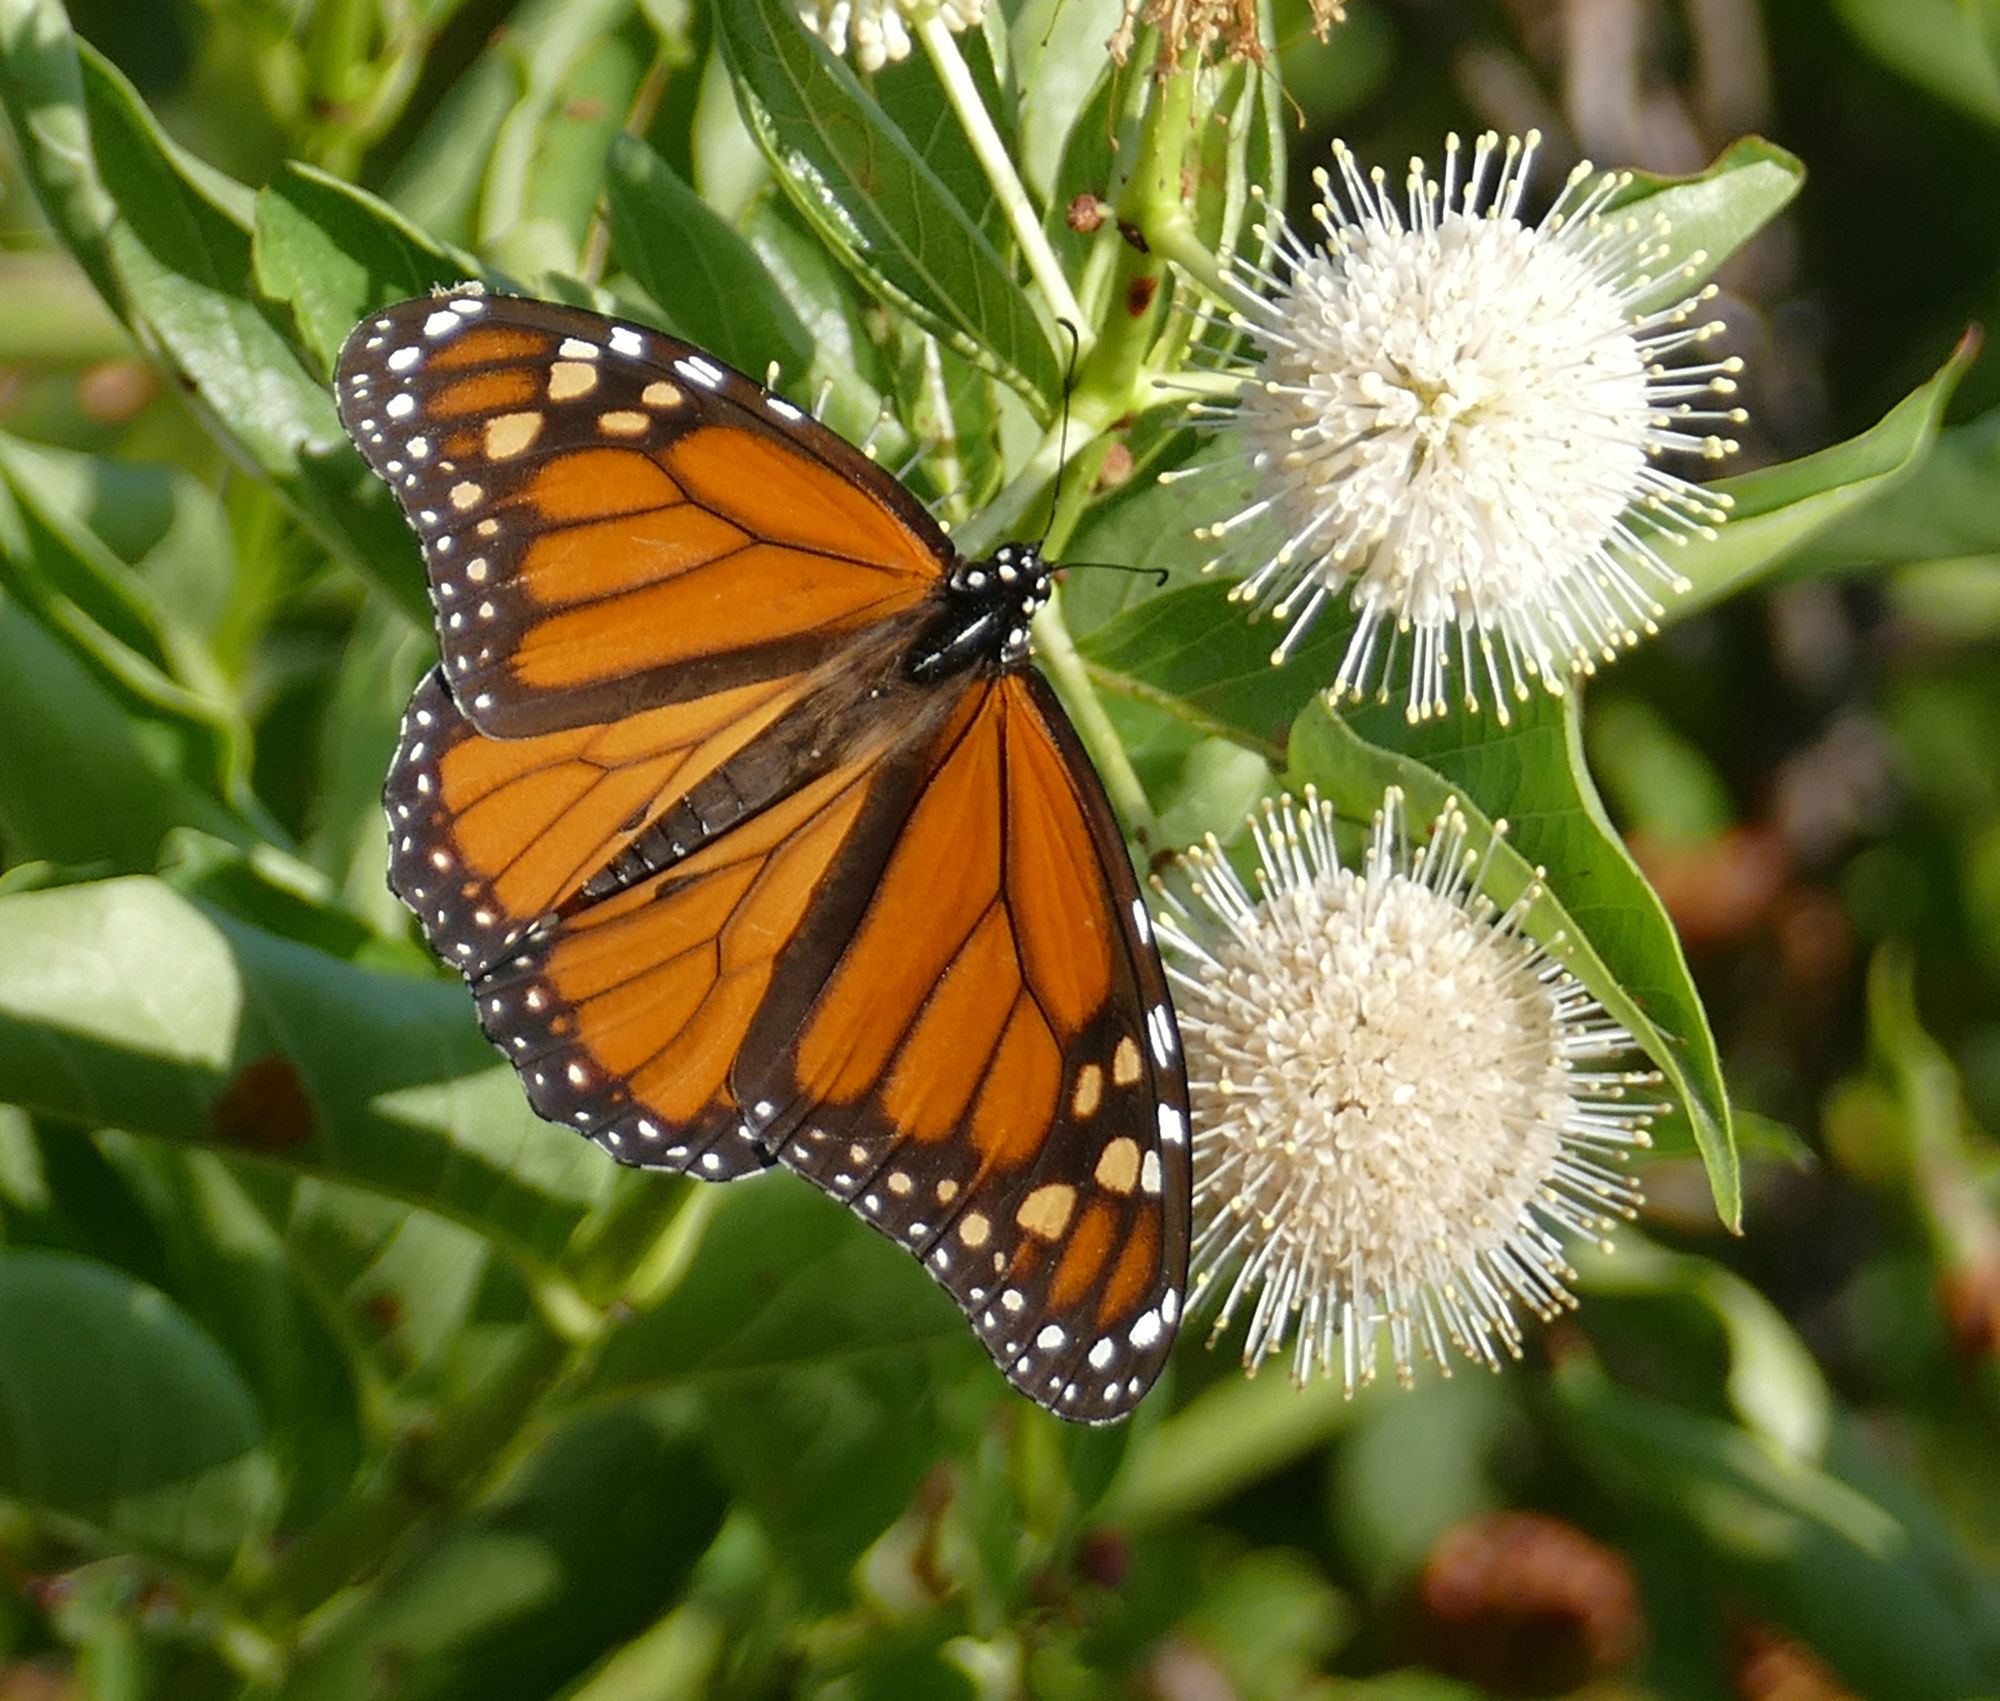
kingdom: Animalia
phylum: Arthropoda
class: Insecta
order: Lepidoptera
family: Nymphalidae
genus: Danaus
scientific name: Danaus plexippus
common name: Monarch
